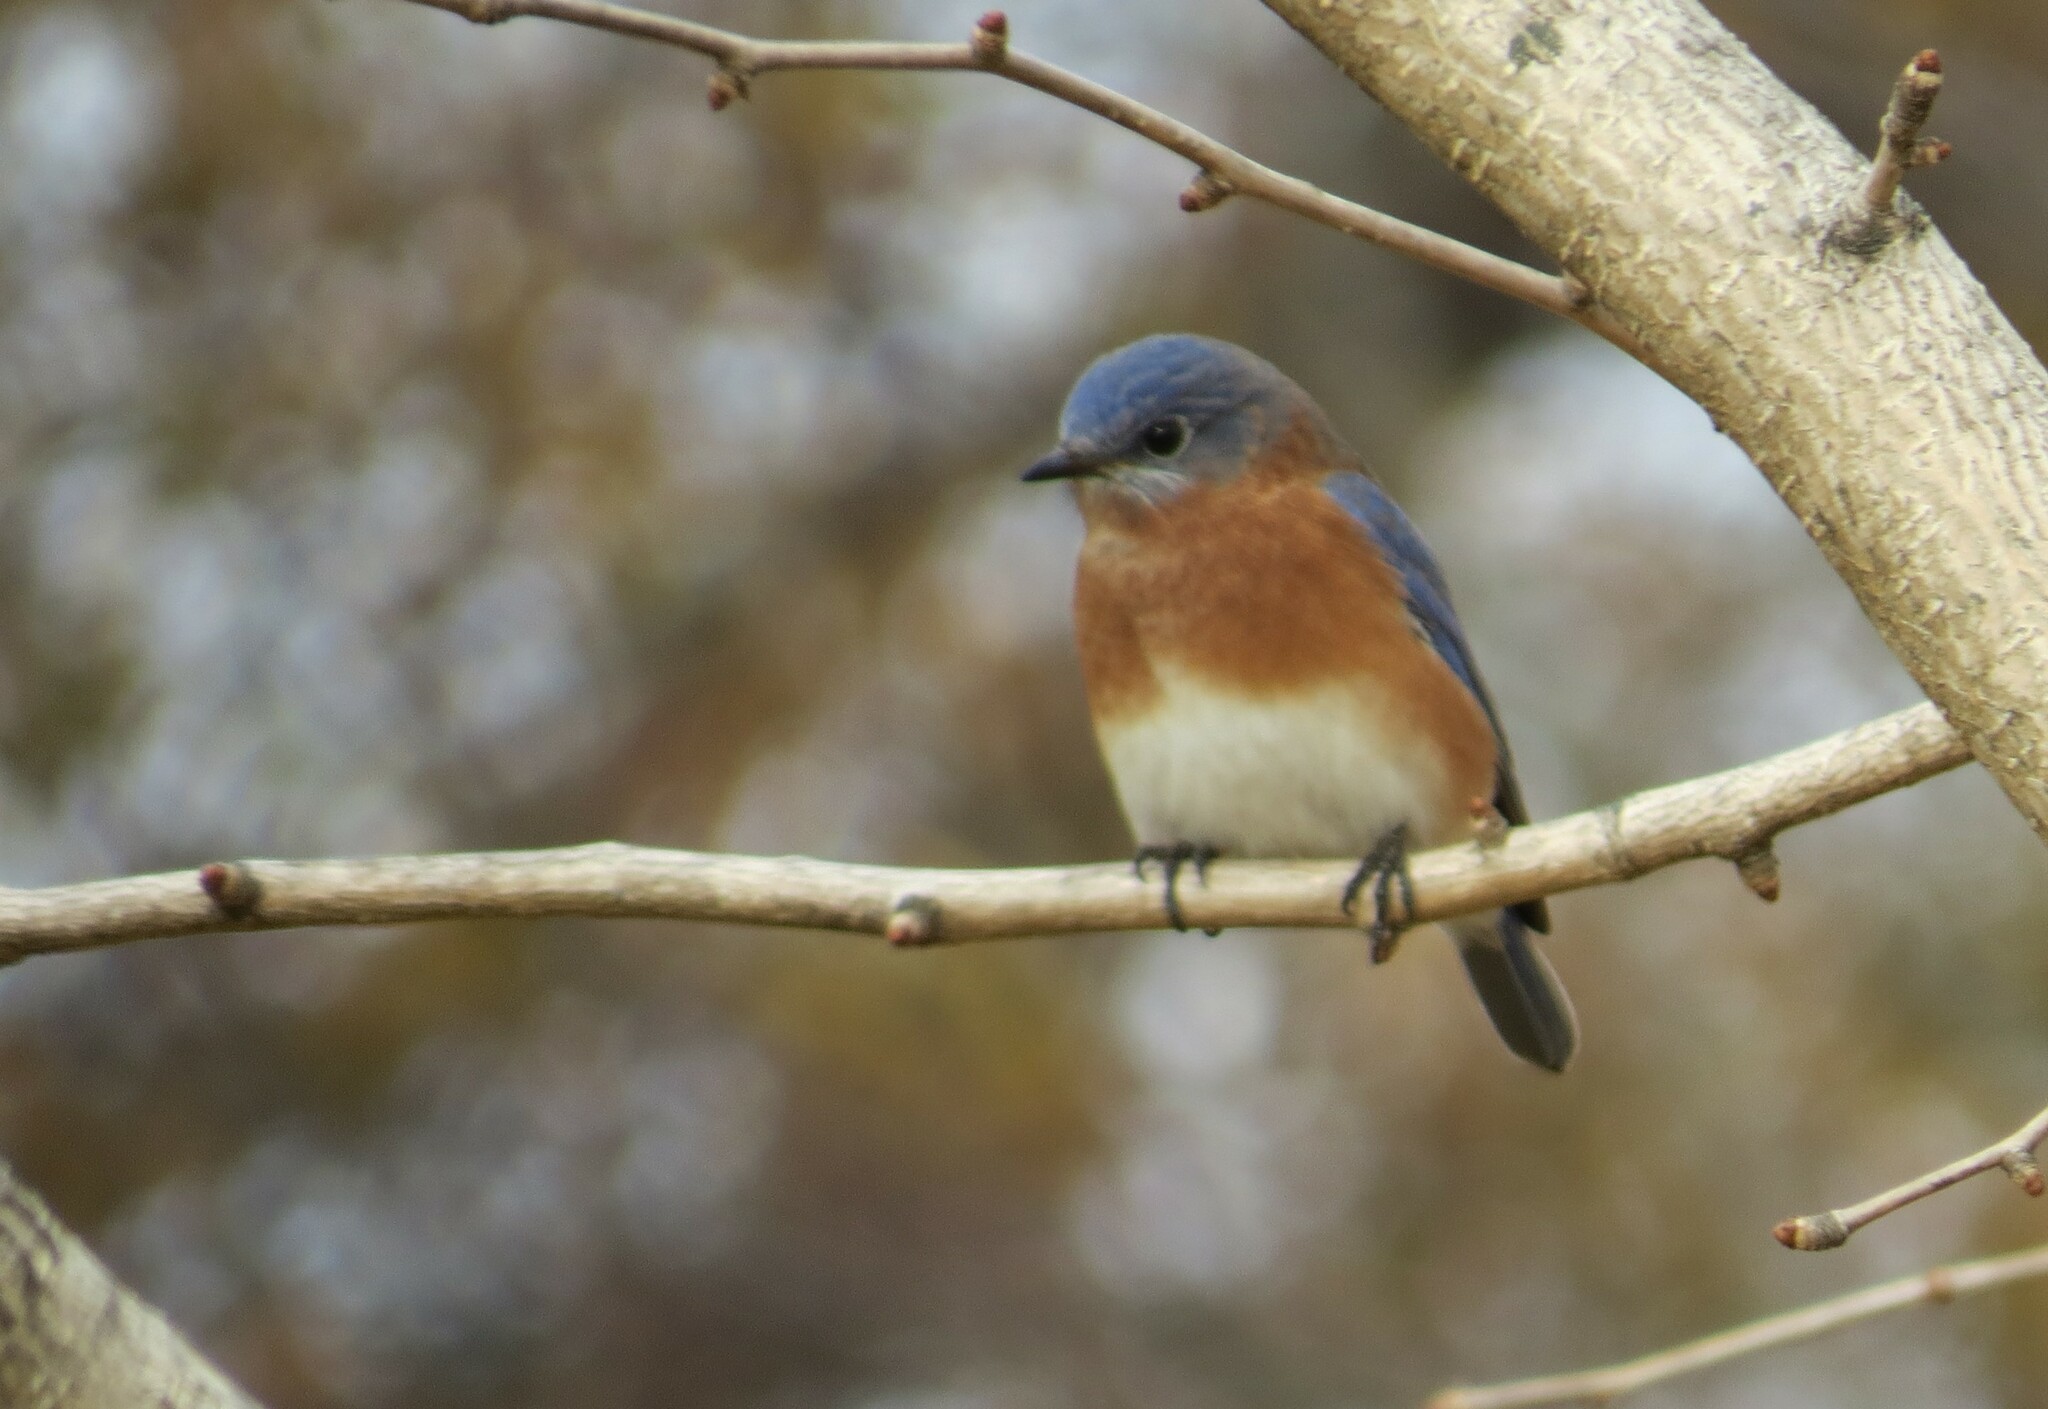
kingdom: Animalia
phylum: Chordata
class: Aves
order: Passeriformes
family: Turdidae
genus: Sialia
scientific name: Sialia sialis
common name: Eastern bluebird
